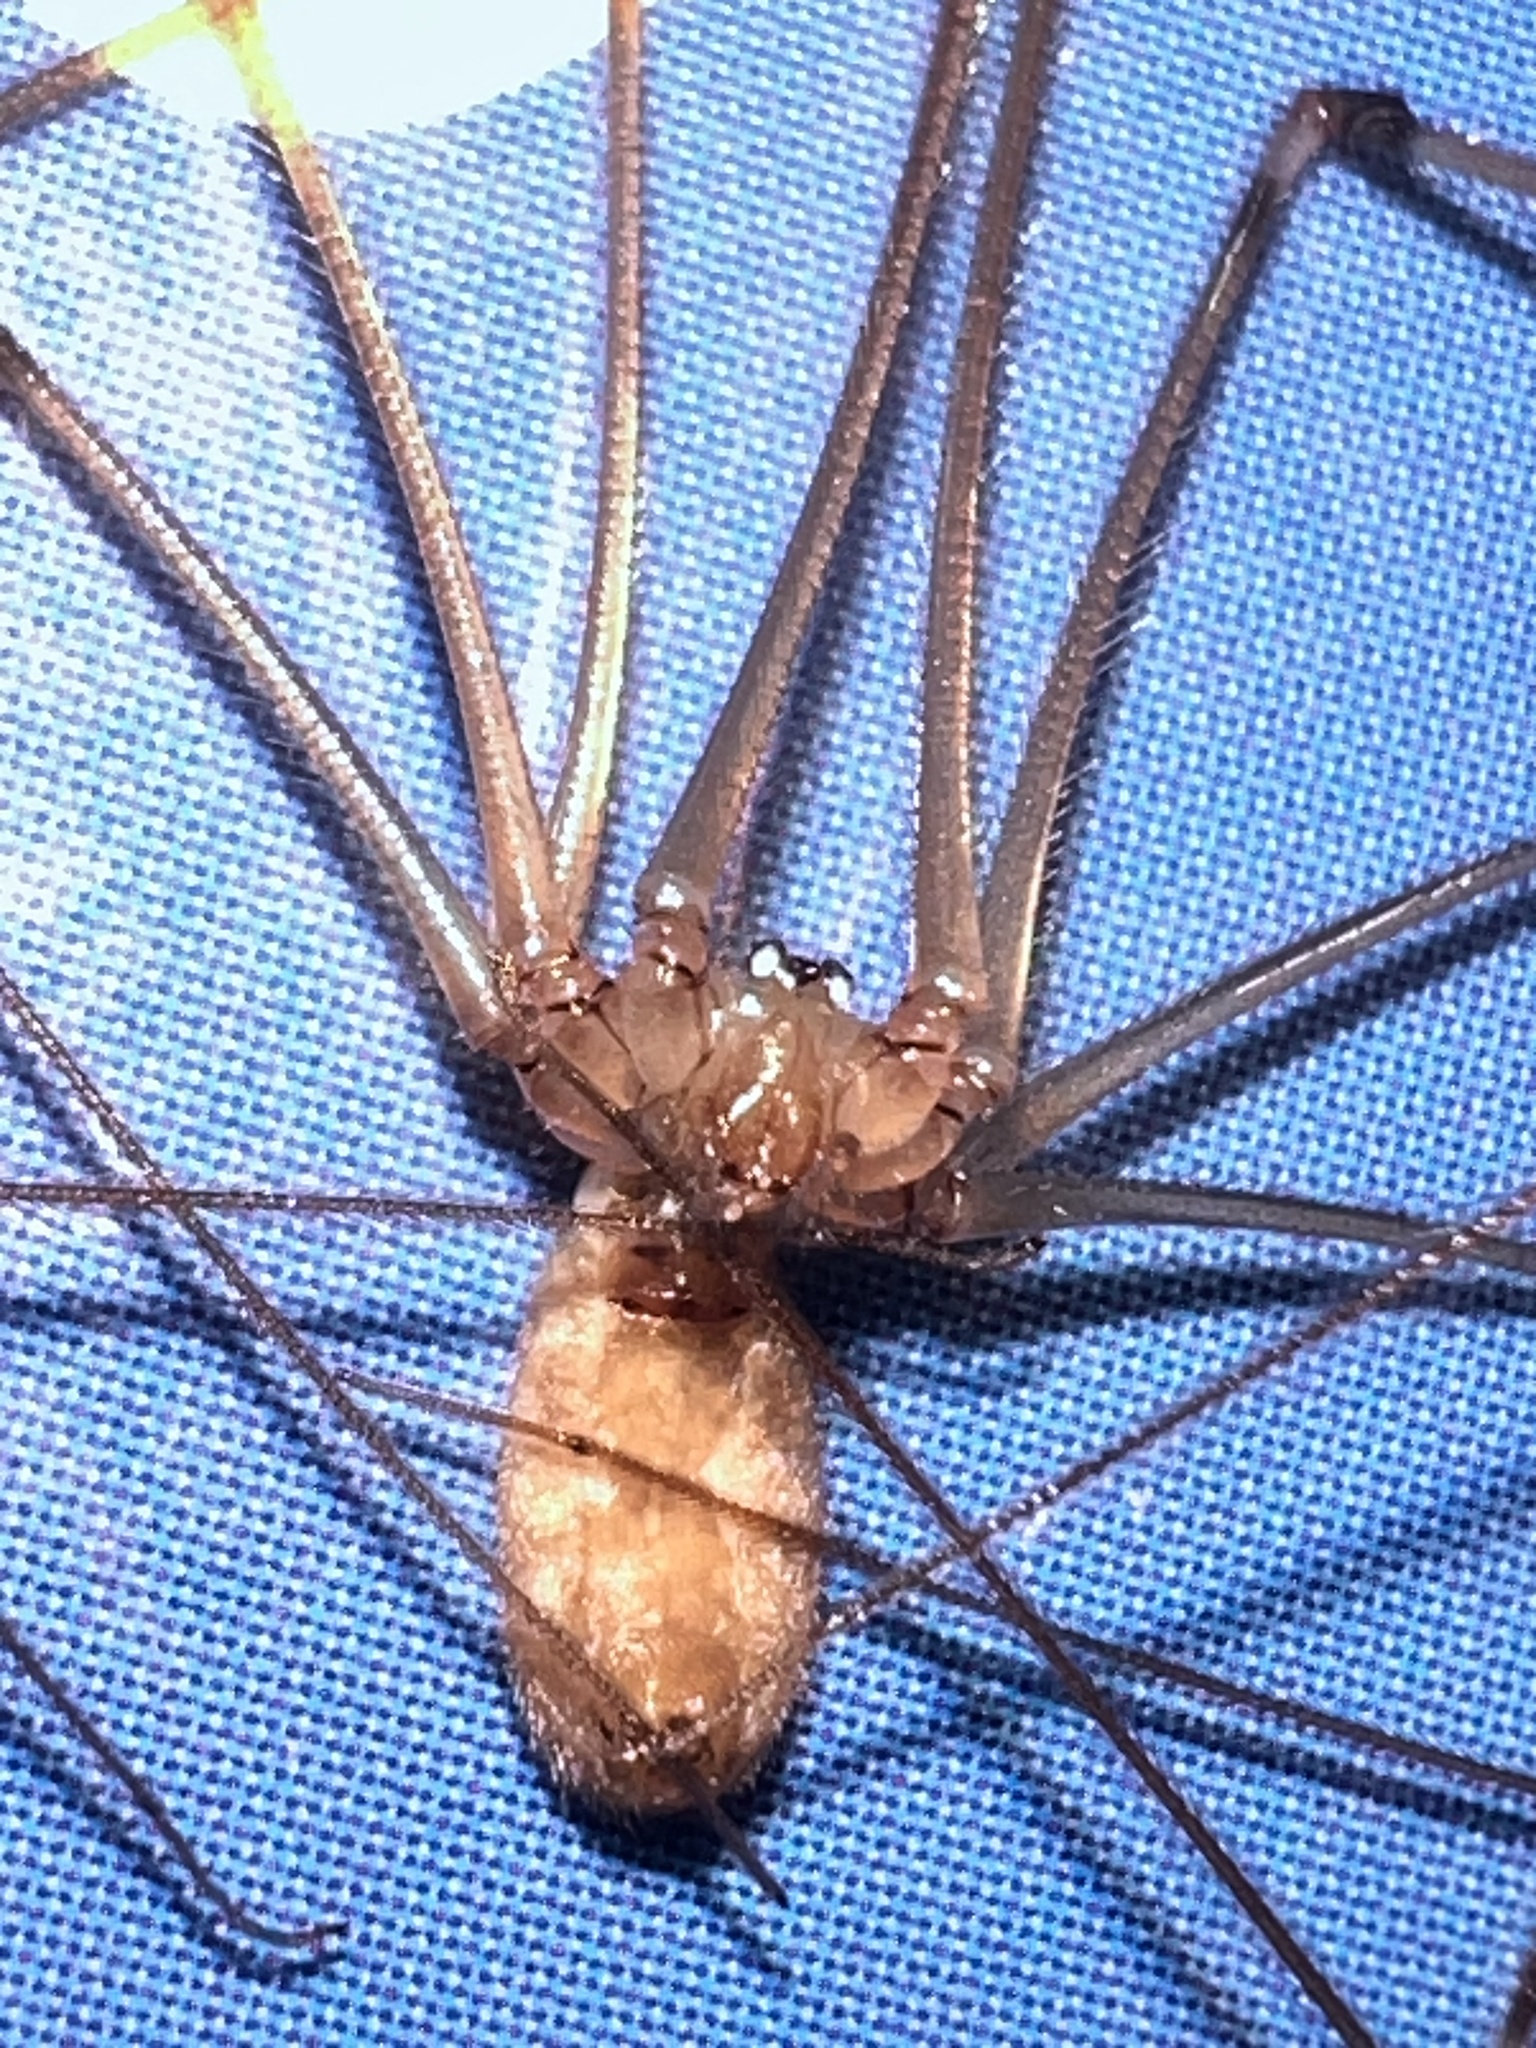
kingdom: Animalia
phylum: Arthropoda
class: Arachnida
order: Araneae
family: Pholcidae
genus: Pholcus
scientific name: Pholcus phalangioides
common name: Longbodied cellar spider
